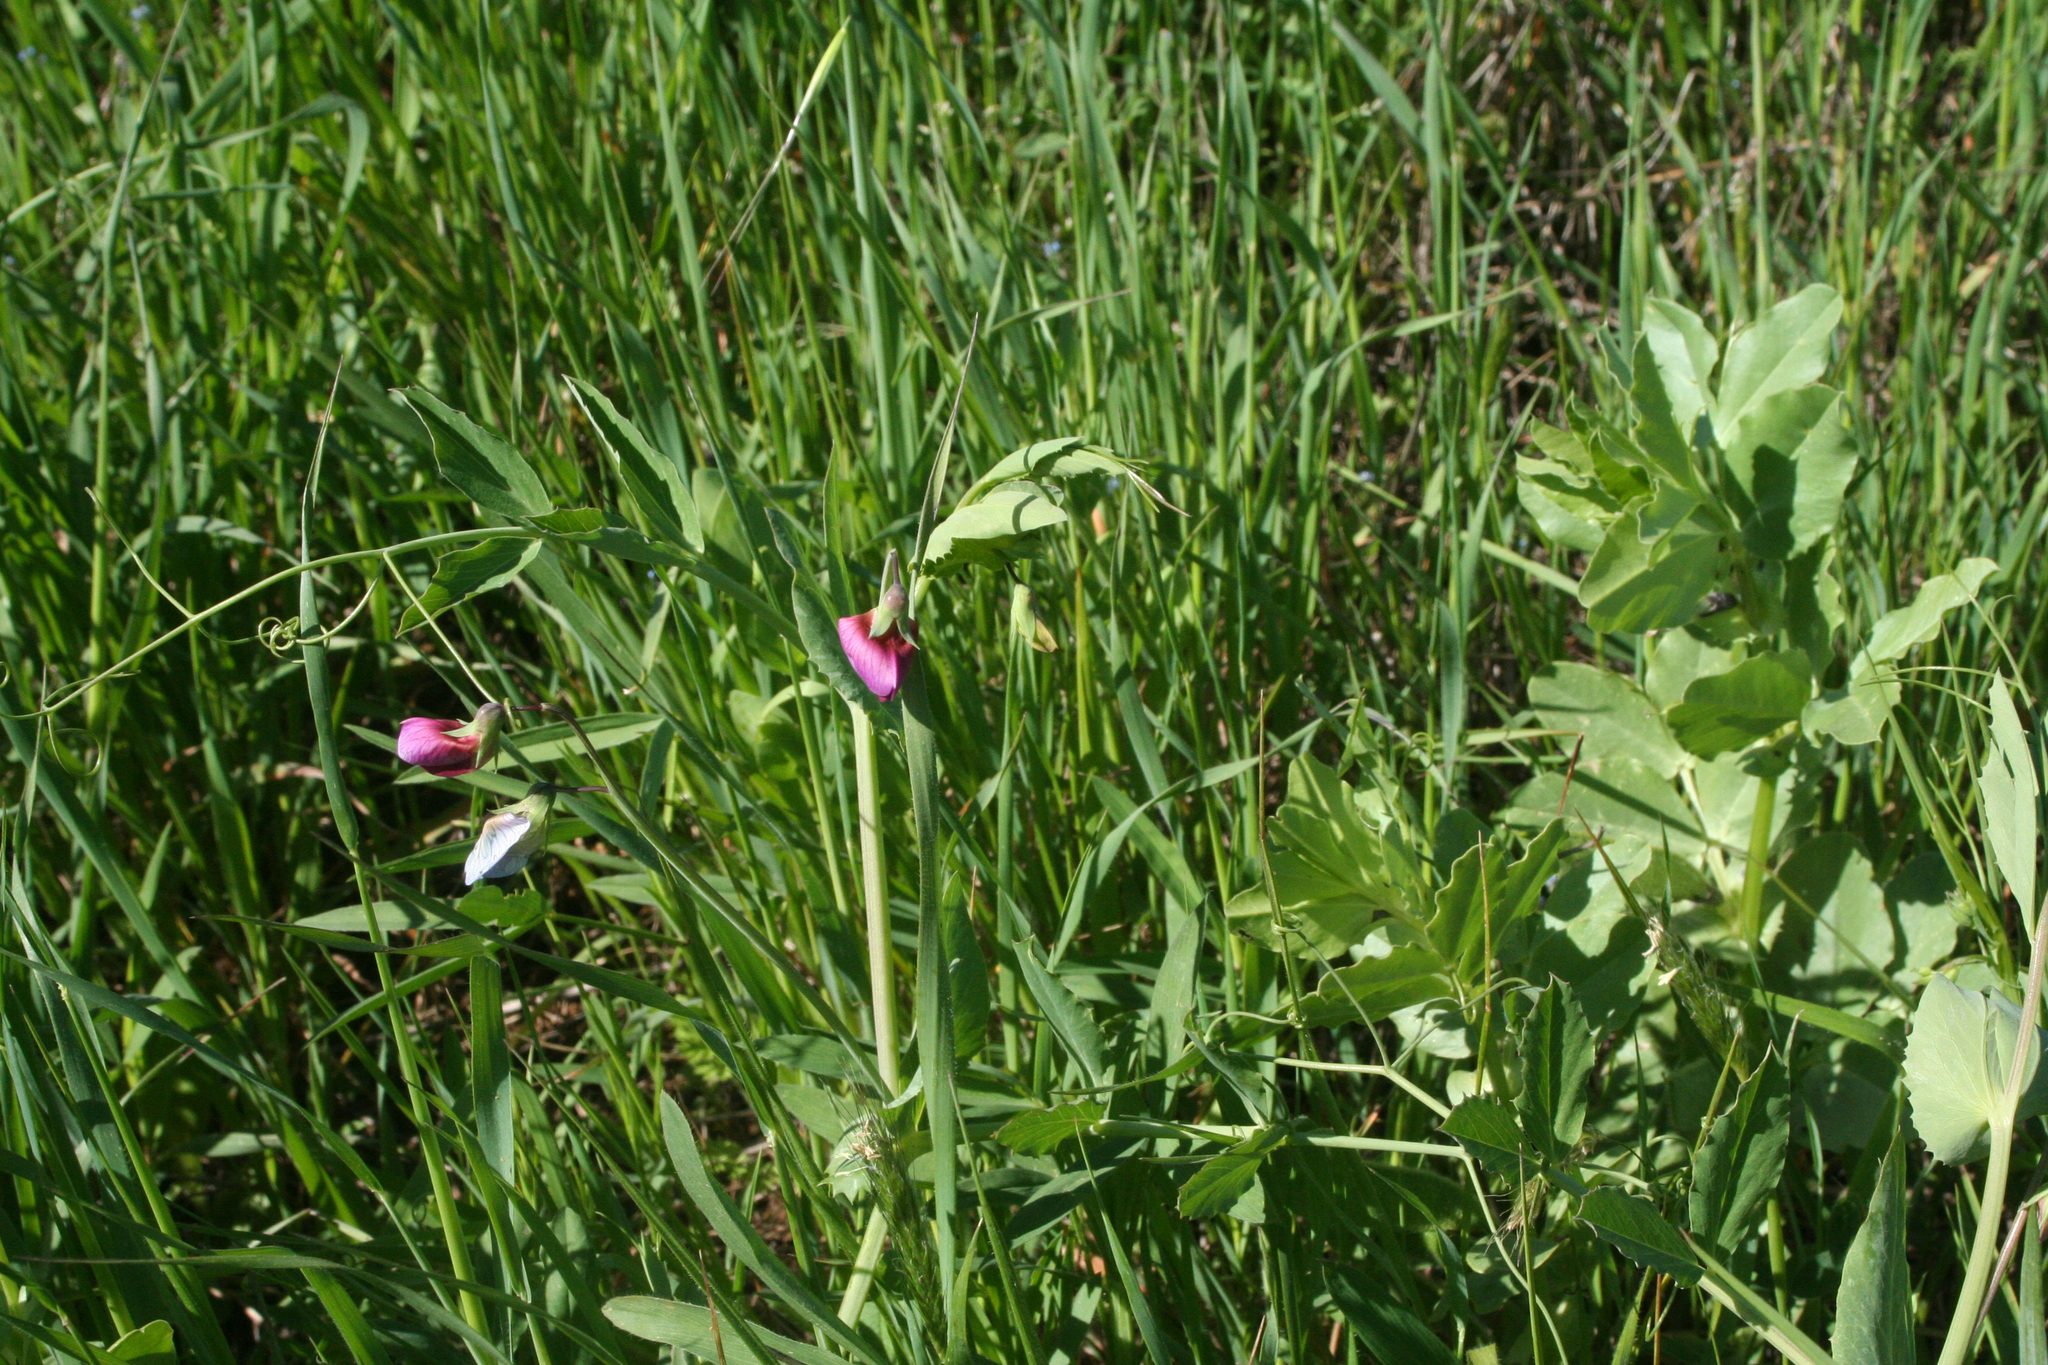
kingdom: Plantae
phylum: Tracheophyta
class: Magnoliopsida
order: Fabales
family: Fabaceae
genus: Vicia
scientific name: Vicia galilaea
